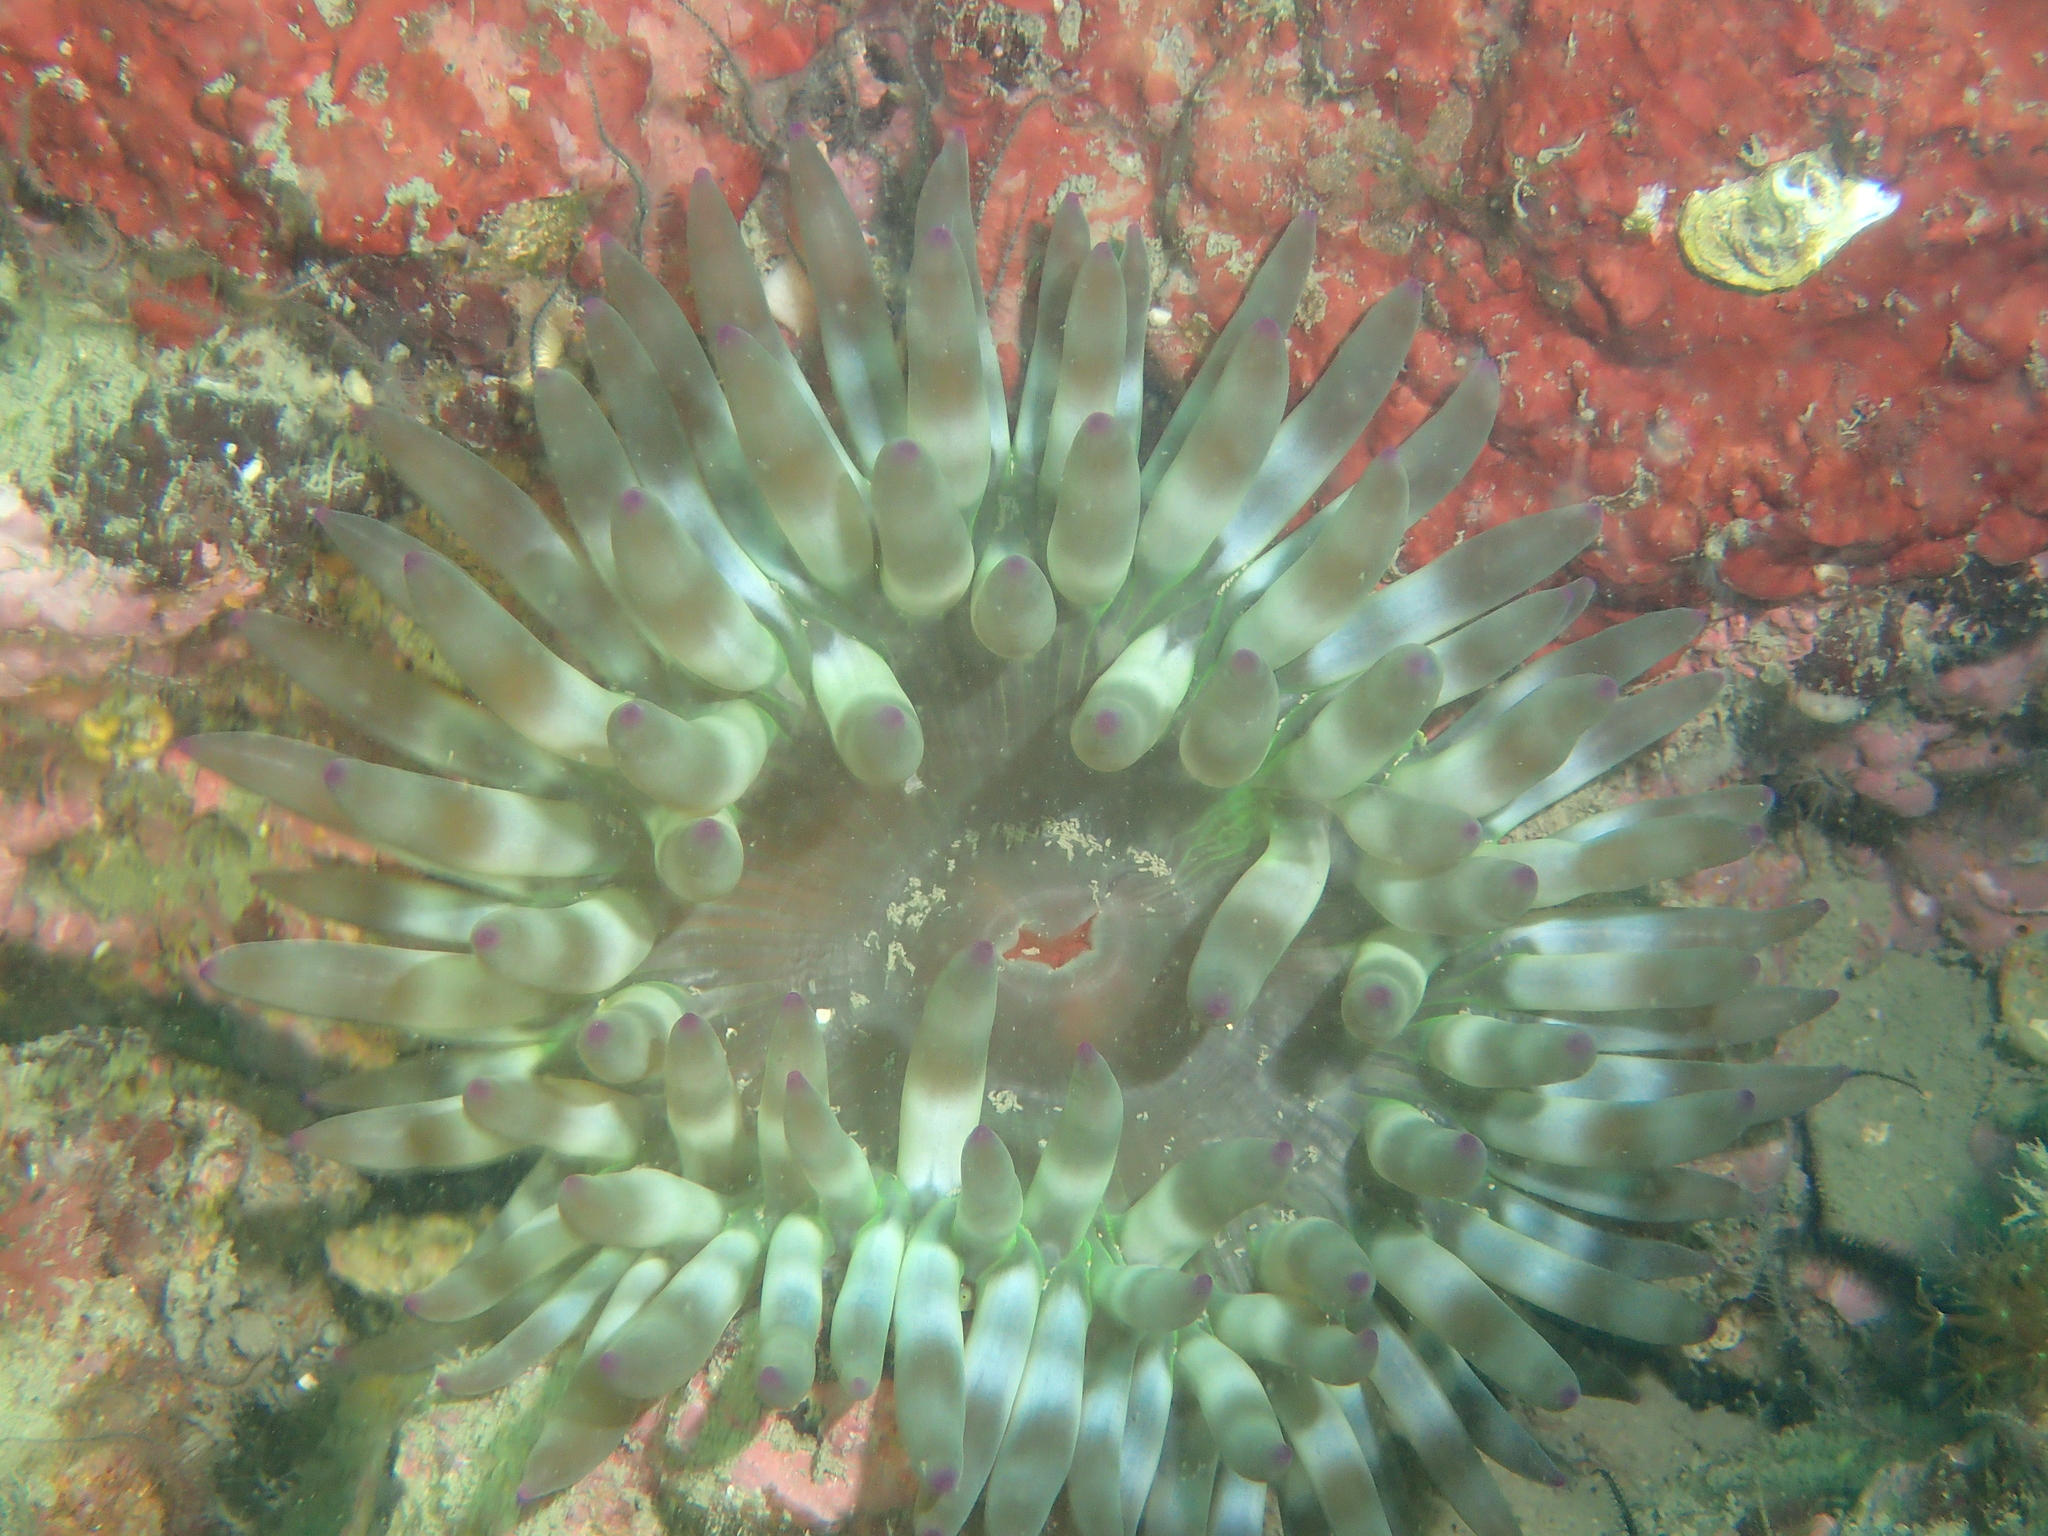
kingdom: Animalia
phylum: Cnidaria
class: Anthozoa
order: Actiniaria
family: Actiniidae
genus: Cribrinopsis
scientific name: Cribrinopsis crassa
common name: Fat anemone
